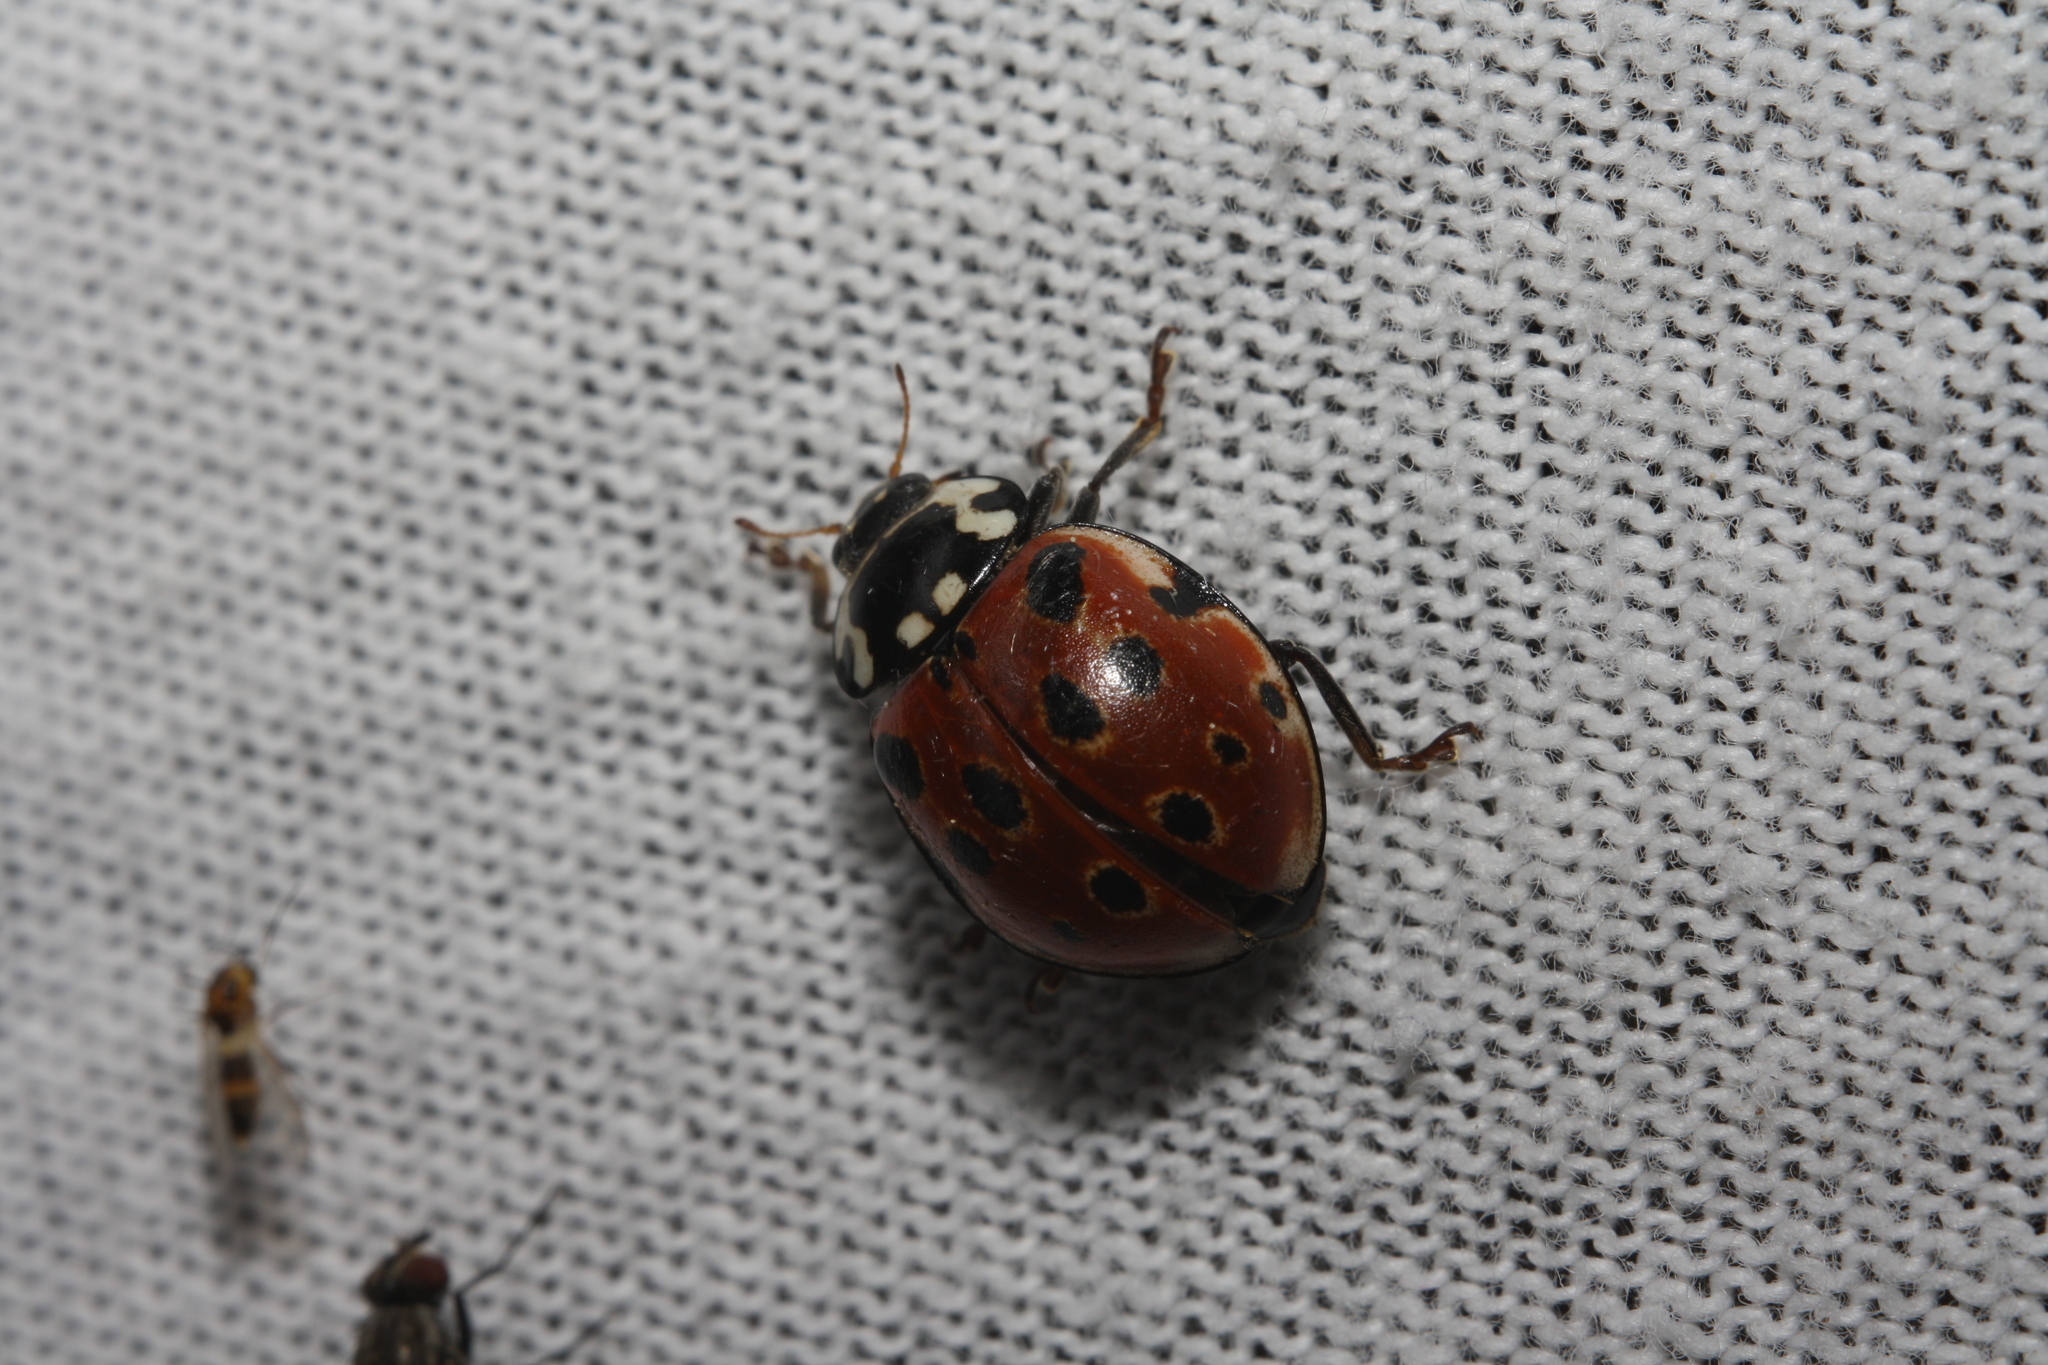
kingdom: Animalia
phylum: Arthropoda
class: Insecta
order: Coleoptera
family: Coccinellidae
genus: Anatis
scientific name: Anatis ocellata
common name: Eyed ladybird
